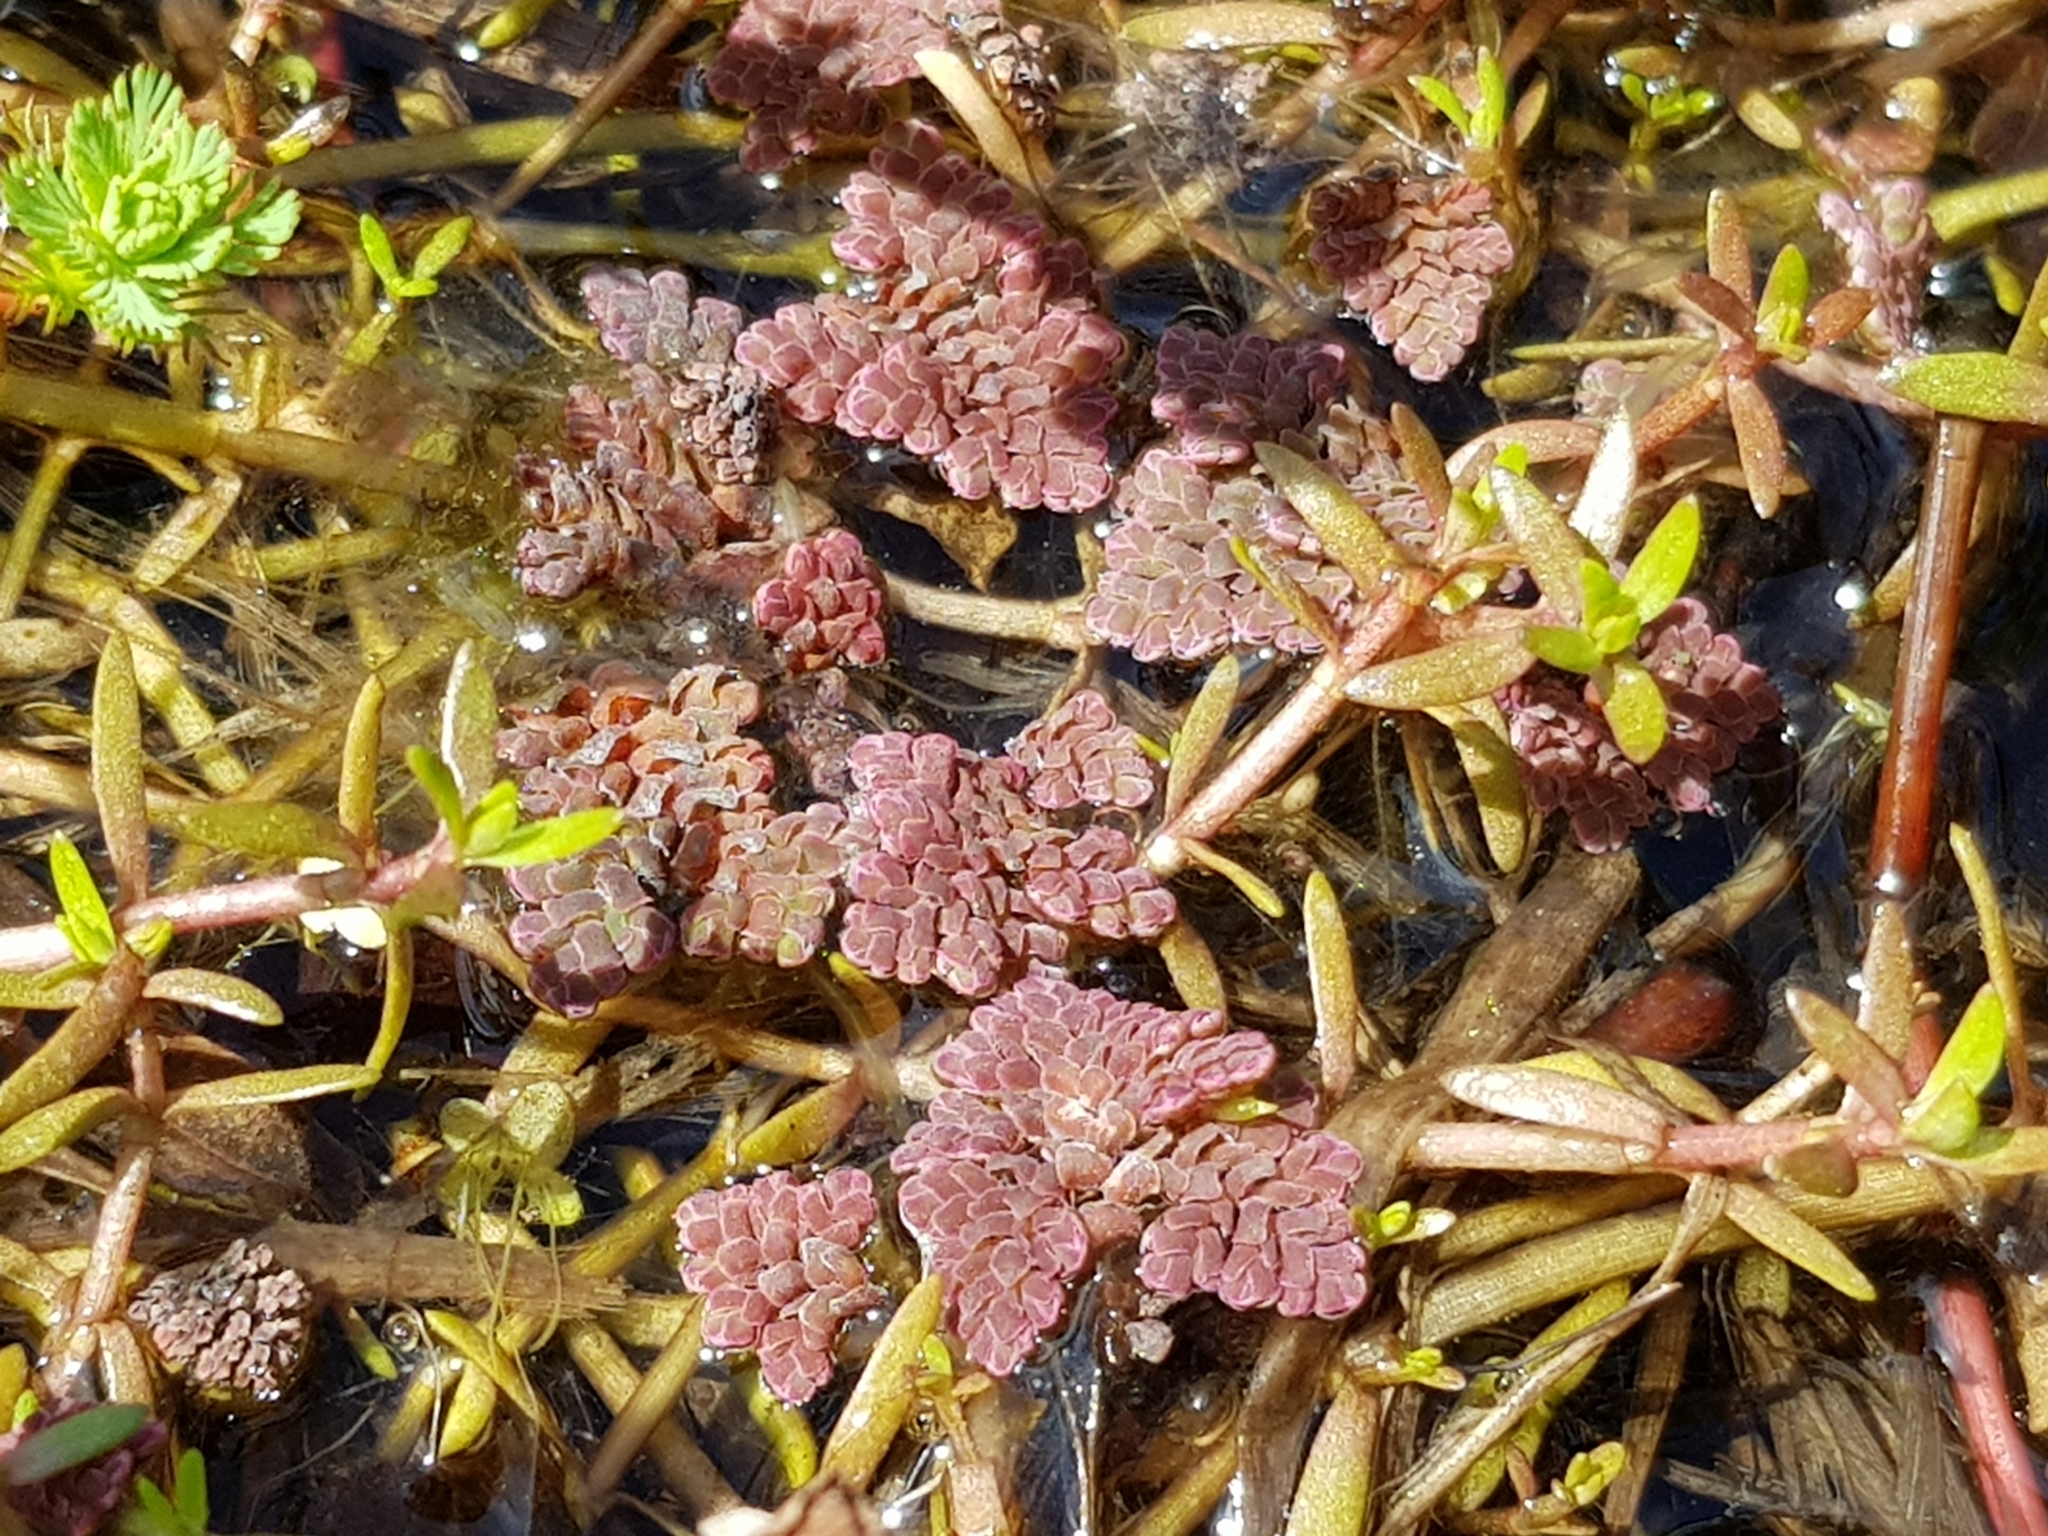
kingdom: Plantae
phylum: Tracheophyta
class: Polypodiopsida
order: Salviniales
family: Salviniaceae
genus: Azolla
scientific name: Azolla pinnata
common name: Ferny azolla
